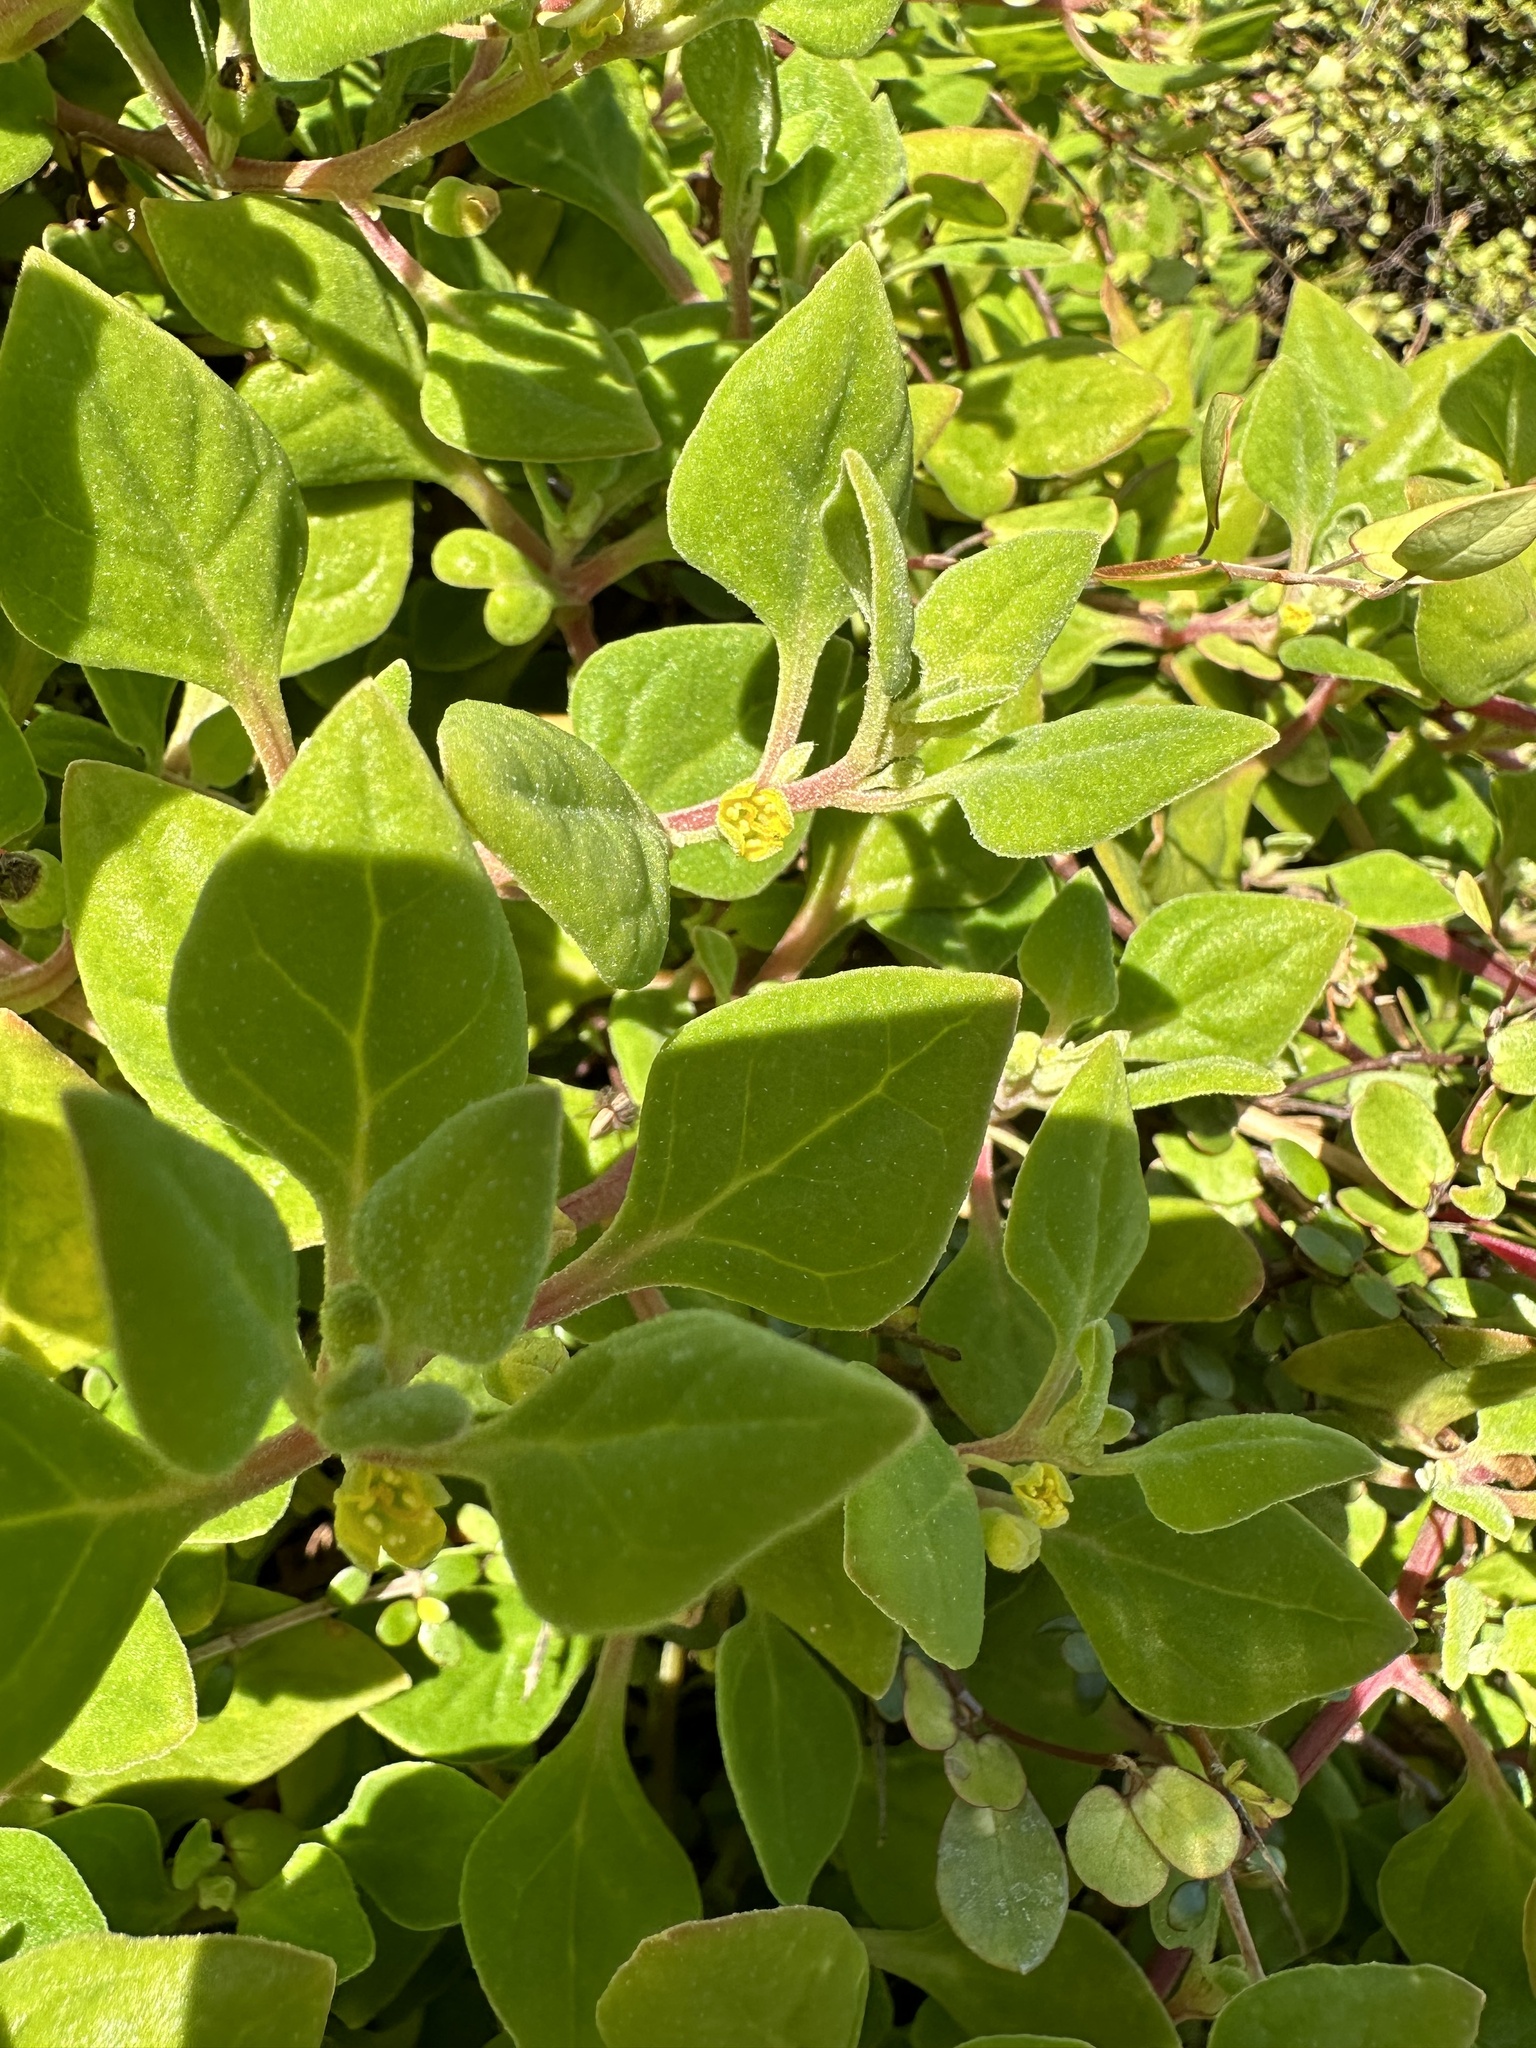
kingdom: Plantae
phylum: Tracheophyta
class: Magnoliopsida
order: Caryophyllales
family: Aizoaceae
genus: Tetragonia
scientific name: Tetragonia implexicoma
